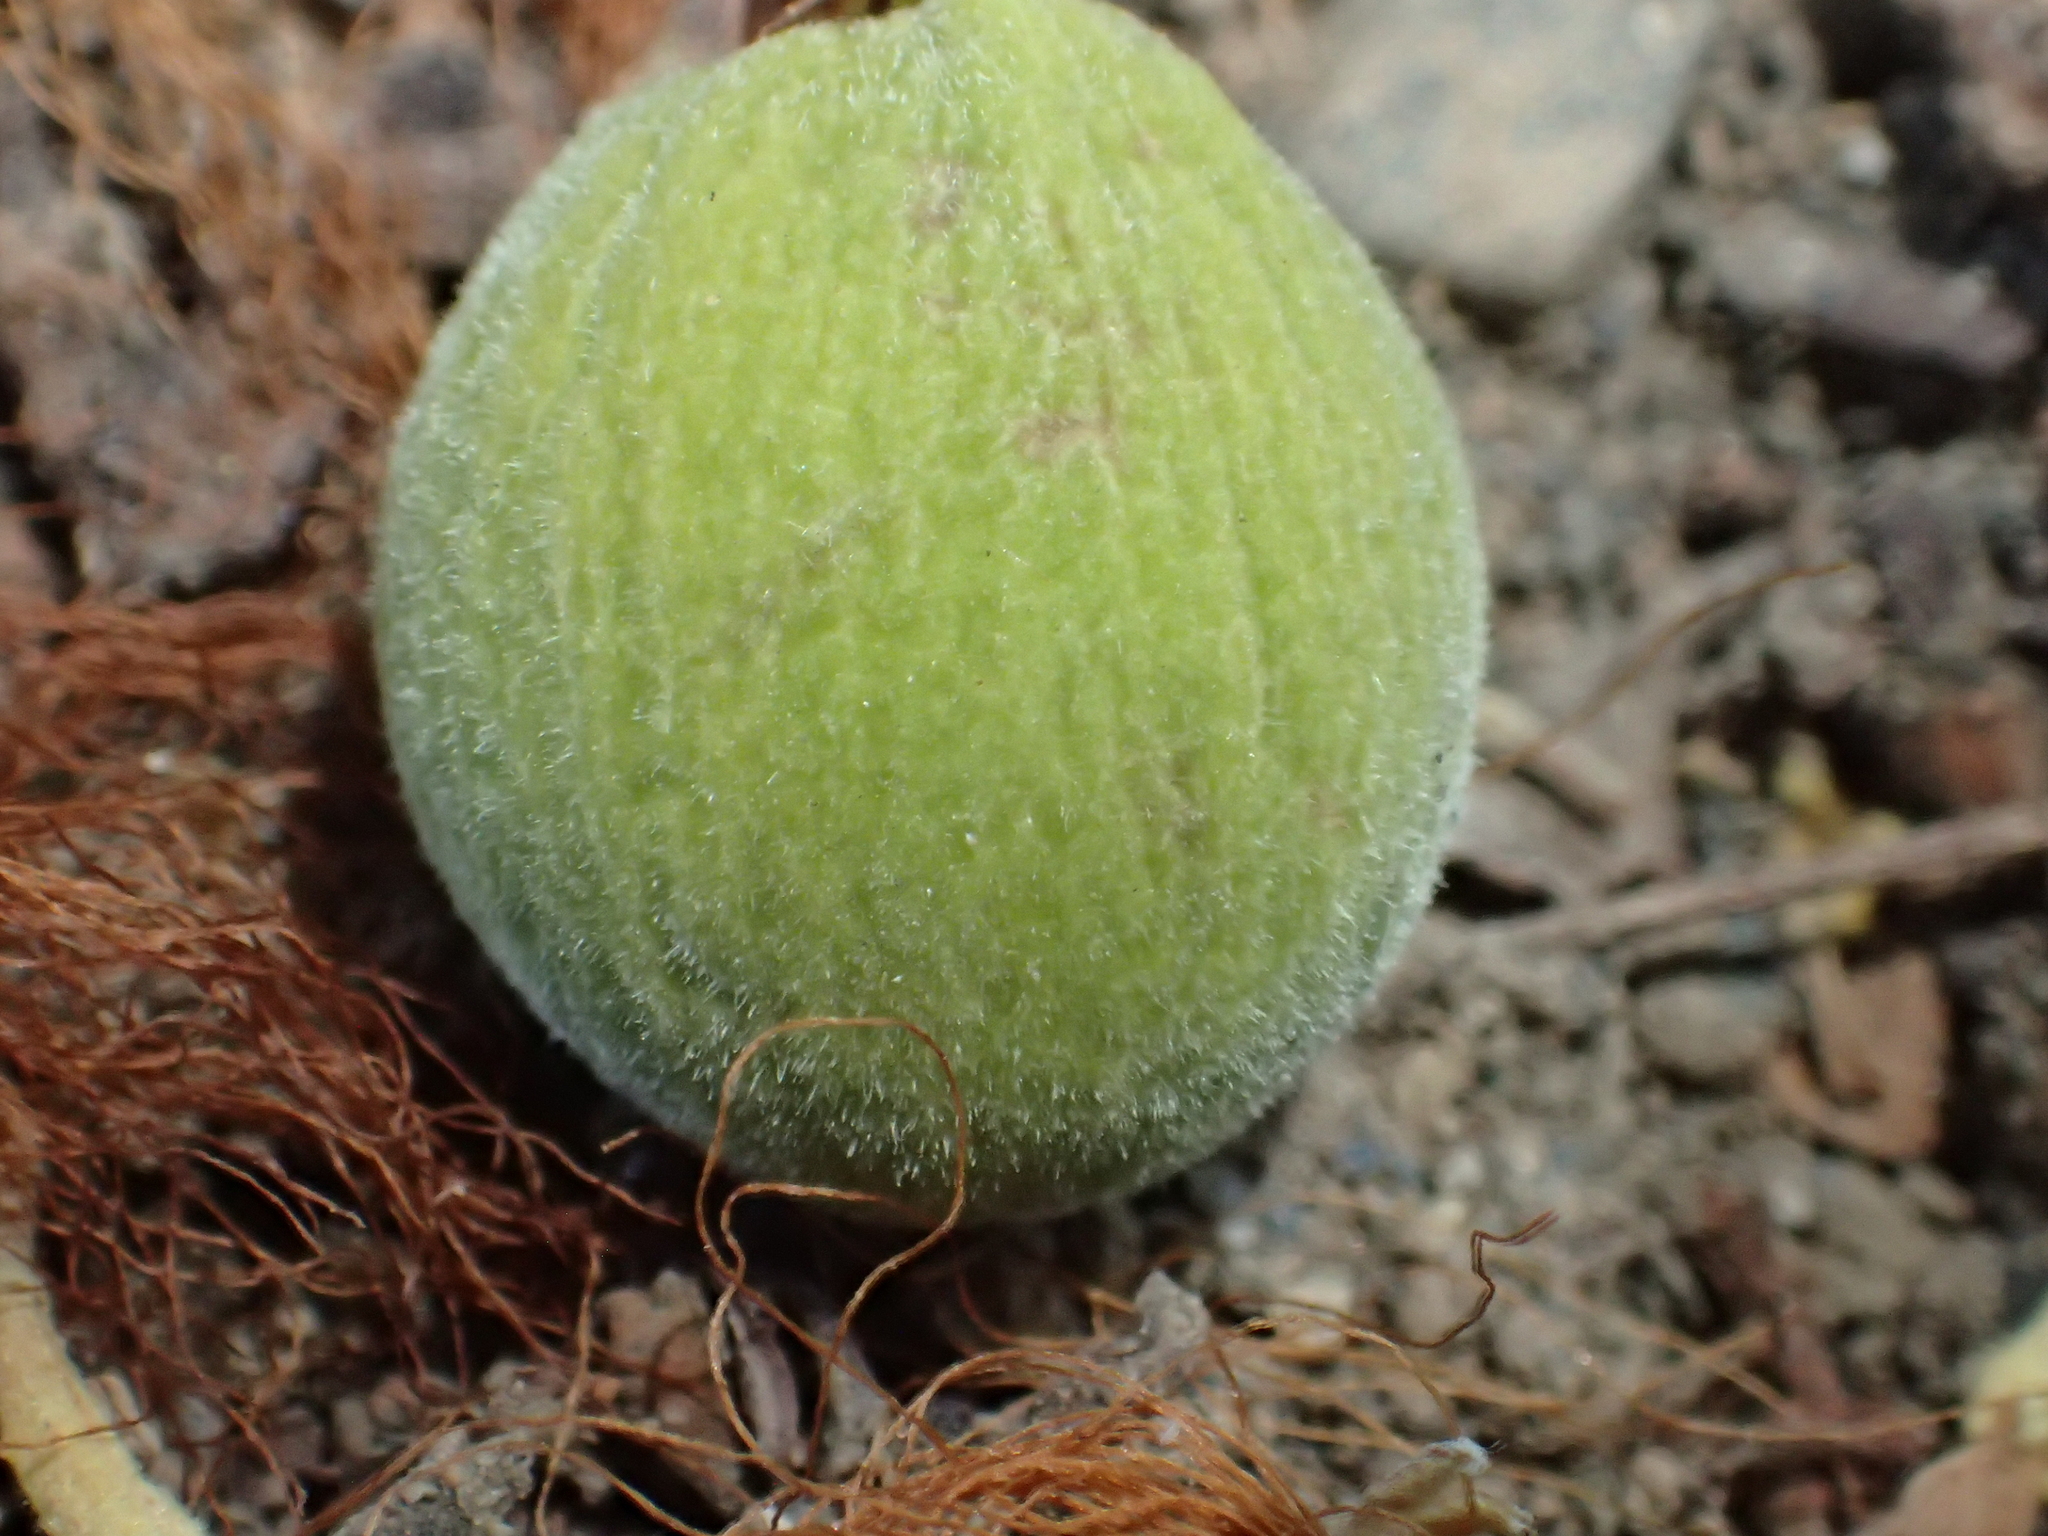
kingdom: Plantae
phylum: Tracheophyta
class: Magnoliopsida
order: Gentianales
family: Rubiaceae
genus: Neolamarckia
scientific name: Neolamarckia cadamba
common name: Leichhardt-pine
